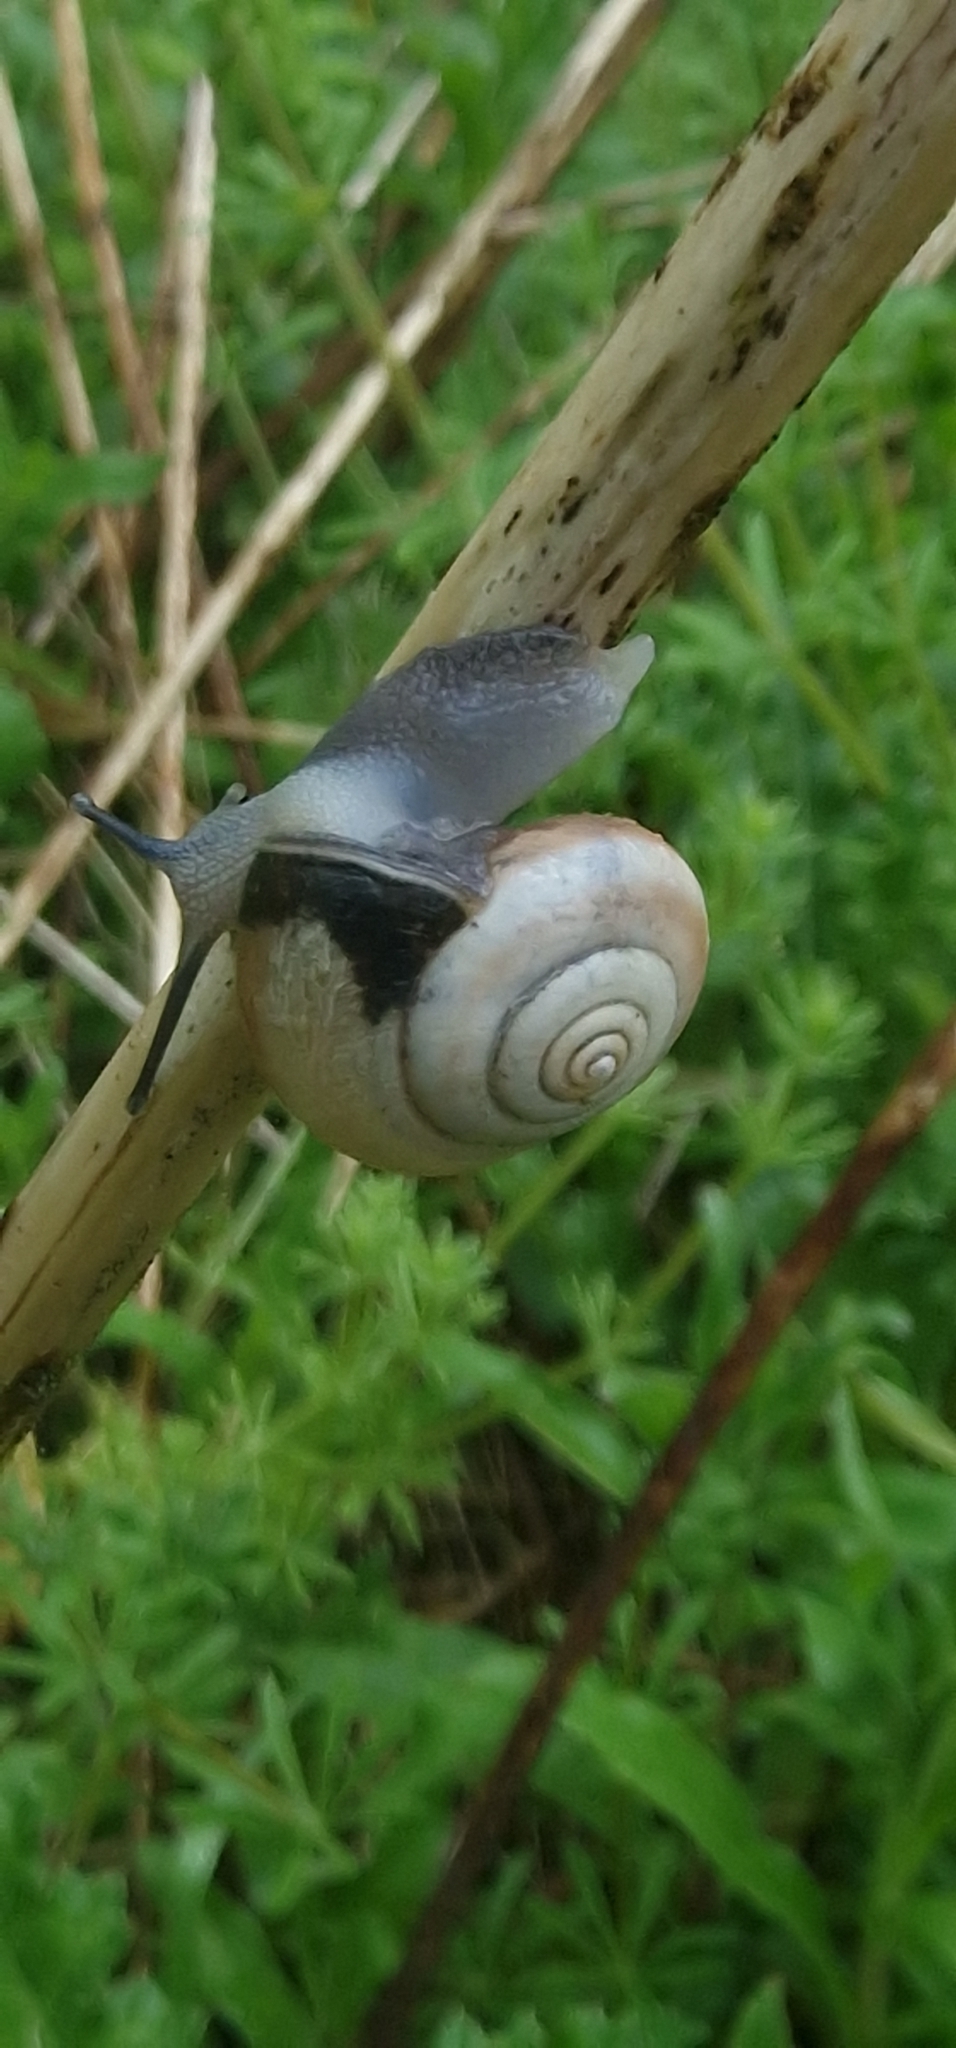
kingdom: Animalia
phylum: Mollusca
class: Gastropoda
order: Stylommatophora
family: Hygromiidae
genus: Monacha
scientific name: Monacha cantiana
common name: Kentish snail
